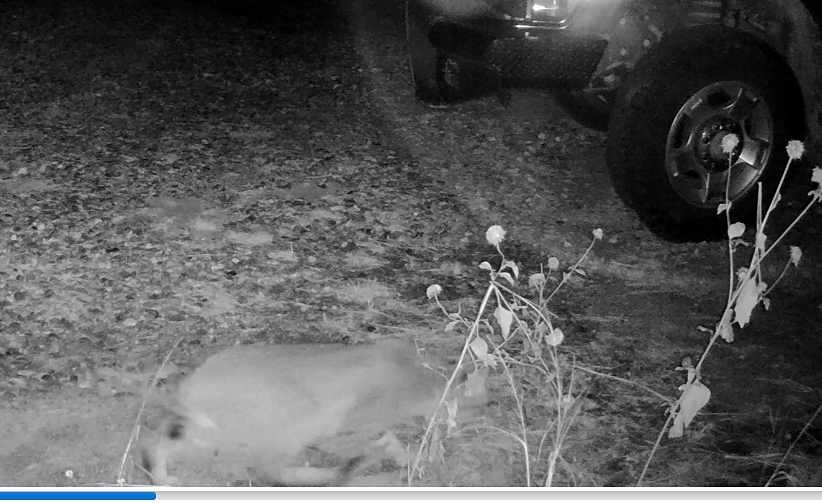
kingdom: Animalia
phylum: Chordata
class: Mammalia
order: Carnivora
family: Felidae
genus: Lynx
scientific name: Lynx rufus
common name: Bobcat
